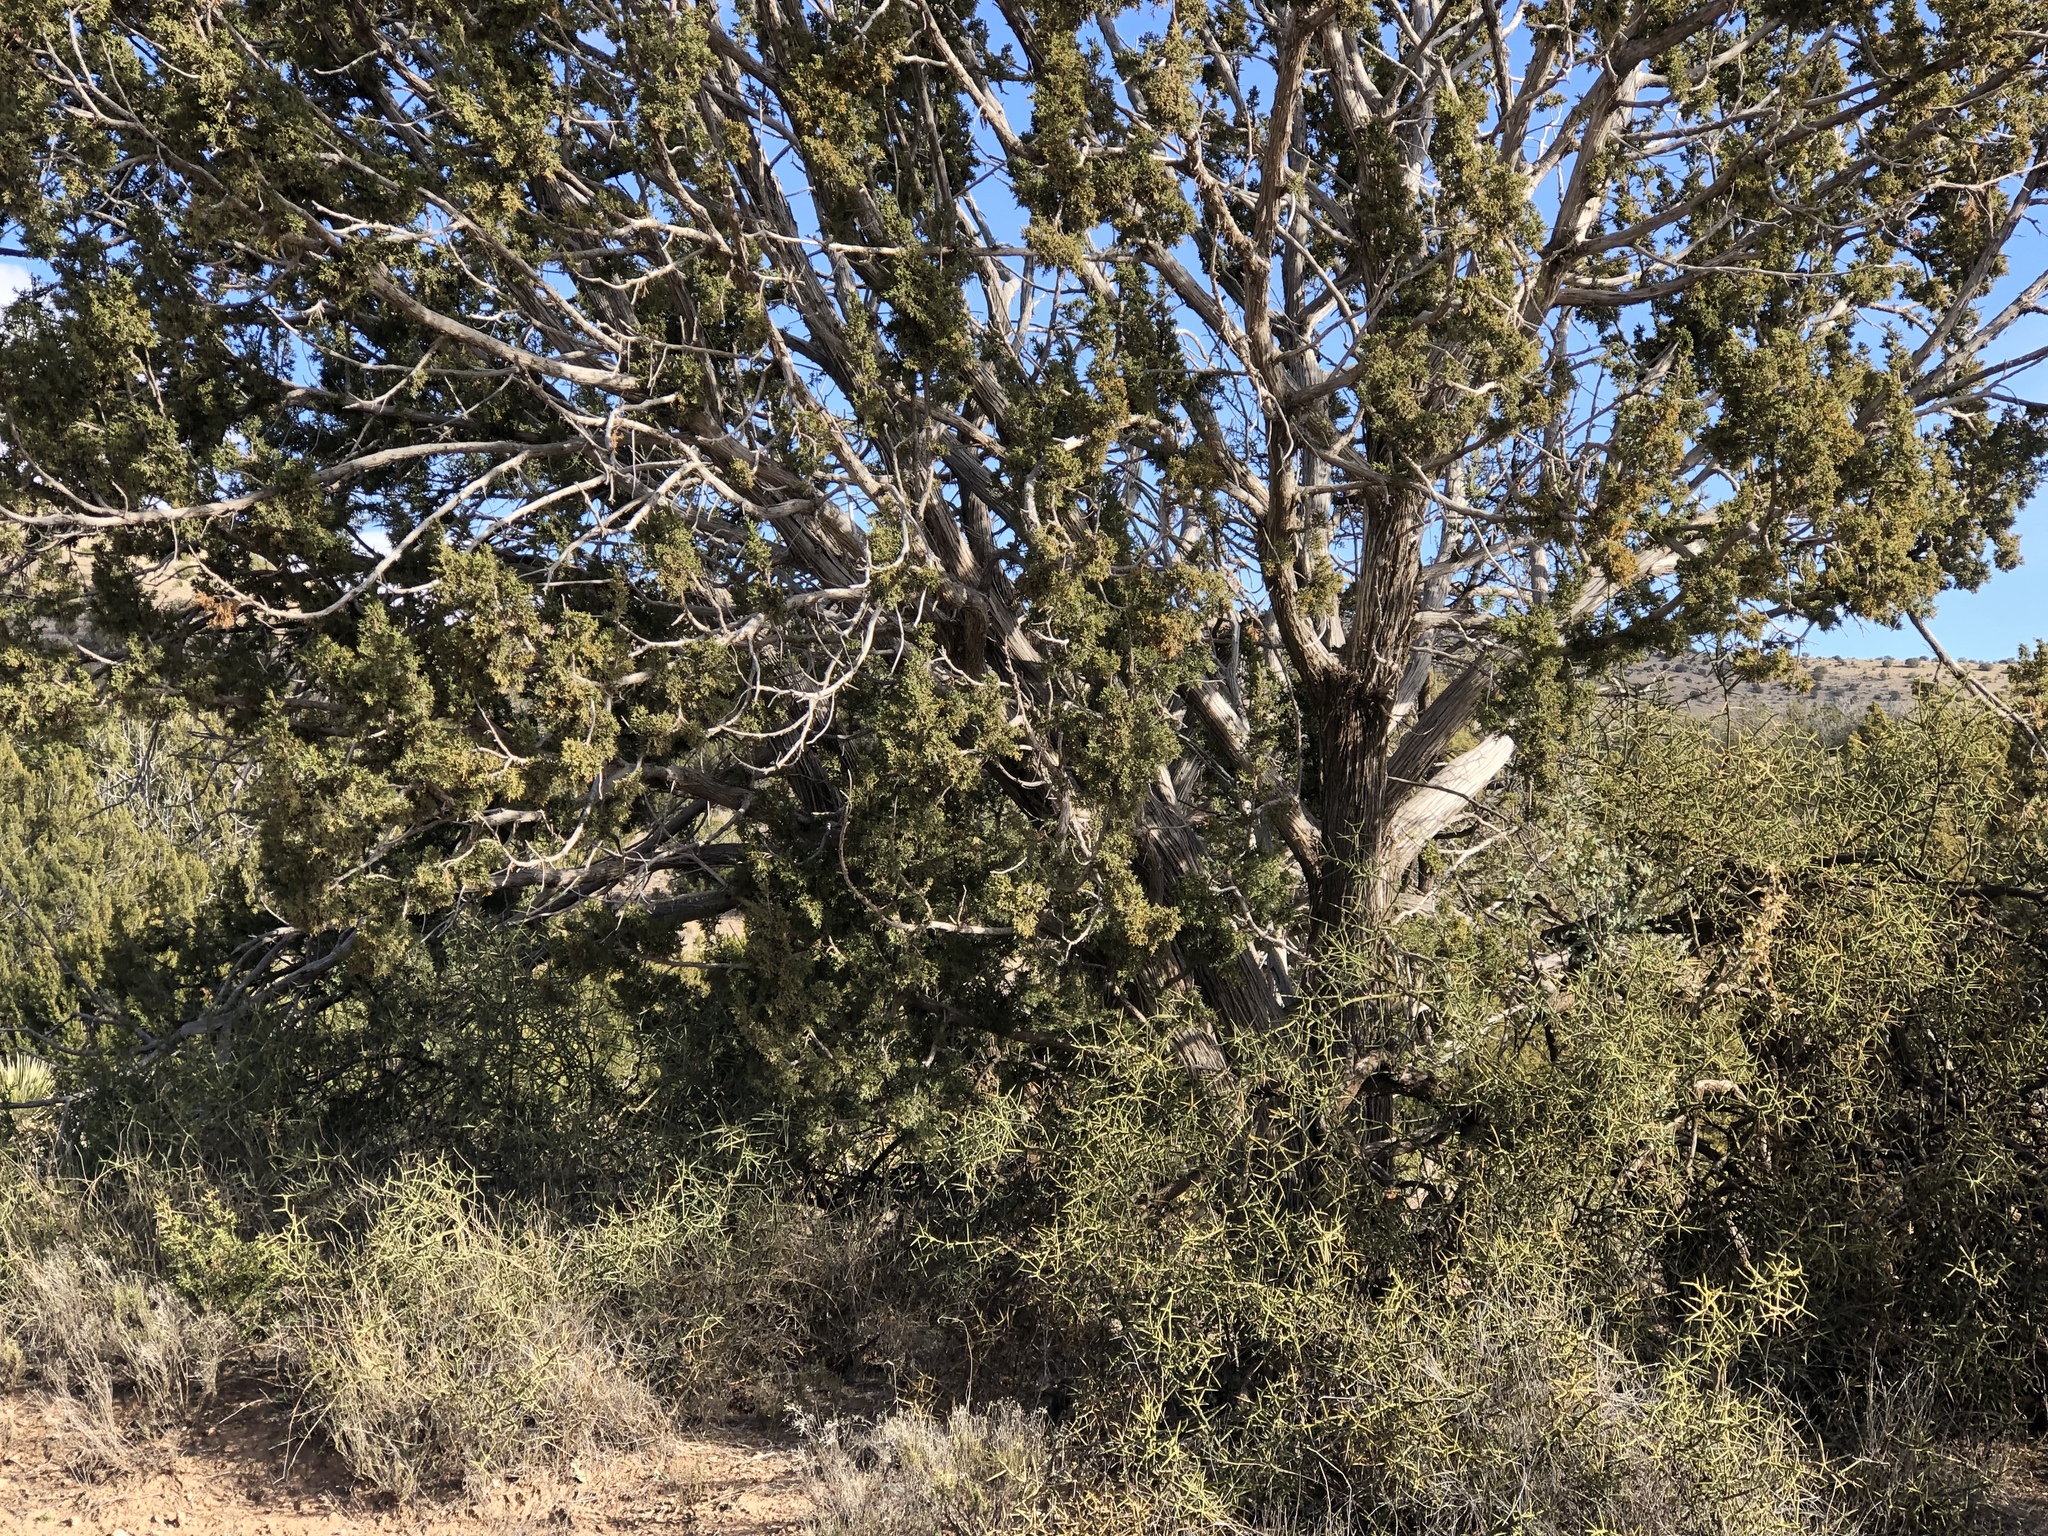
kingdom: Plantae
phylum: Tracheophyta
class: Pinopsida
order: Pinales
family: Cupressaceae
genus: Juniperus
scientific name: Juniperus monosperma
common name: One-seed juniper
